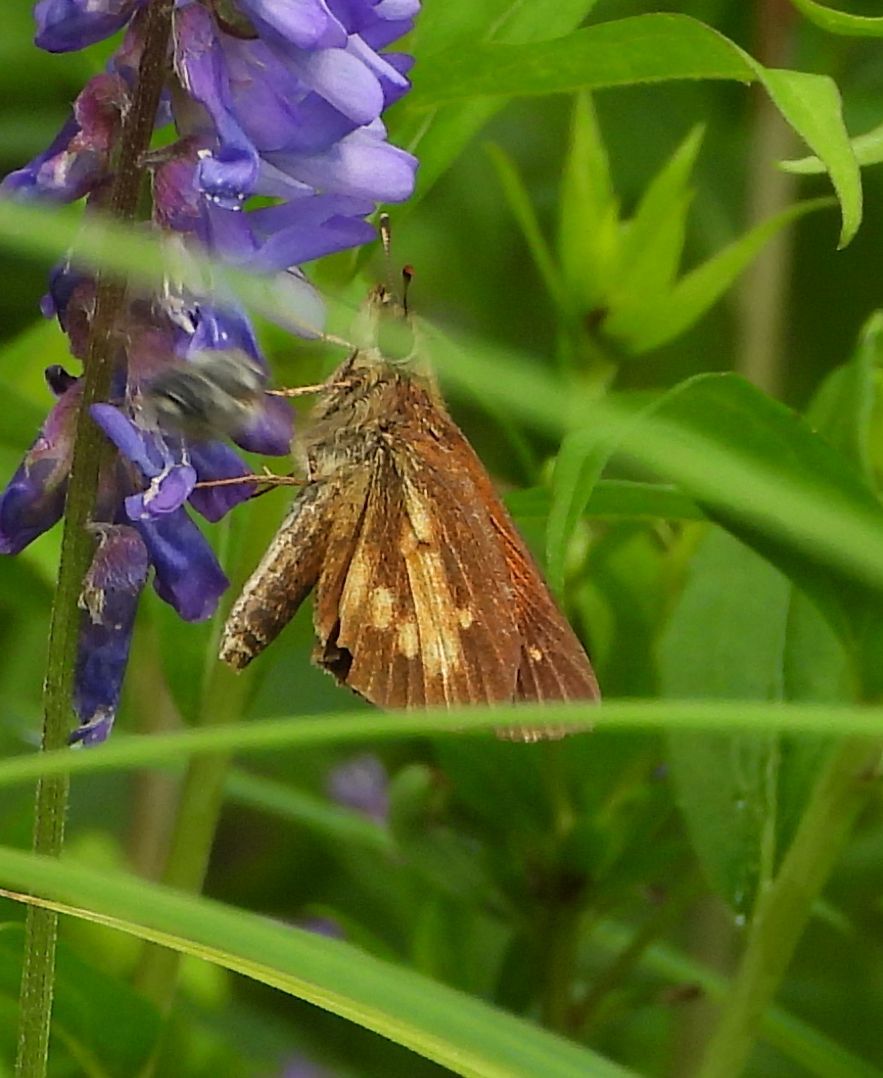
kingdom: Animalia
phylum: Arthropoda
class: Insecta
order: Lepidoptera
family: Hesperiidae
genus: Poanes
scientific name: Poanes viator
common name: Broad-winged skipper
